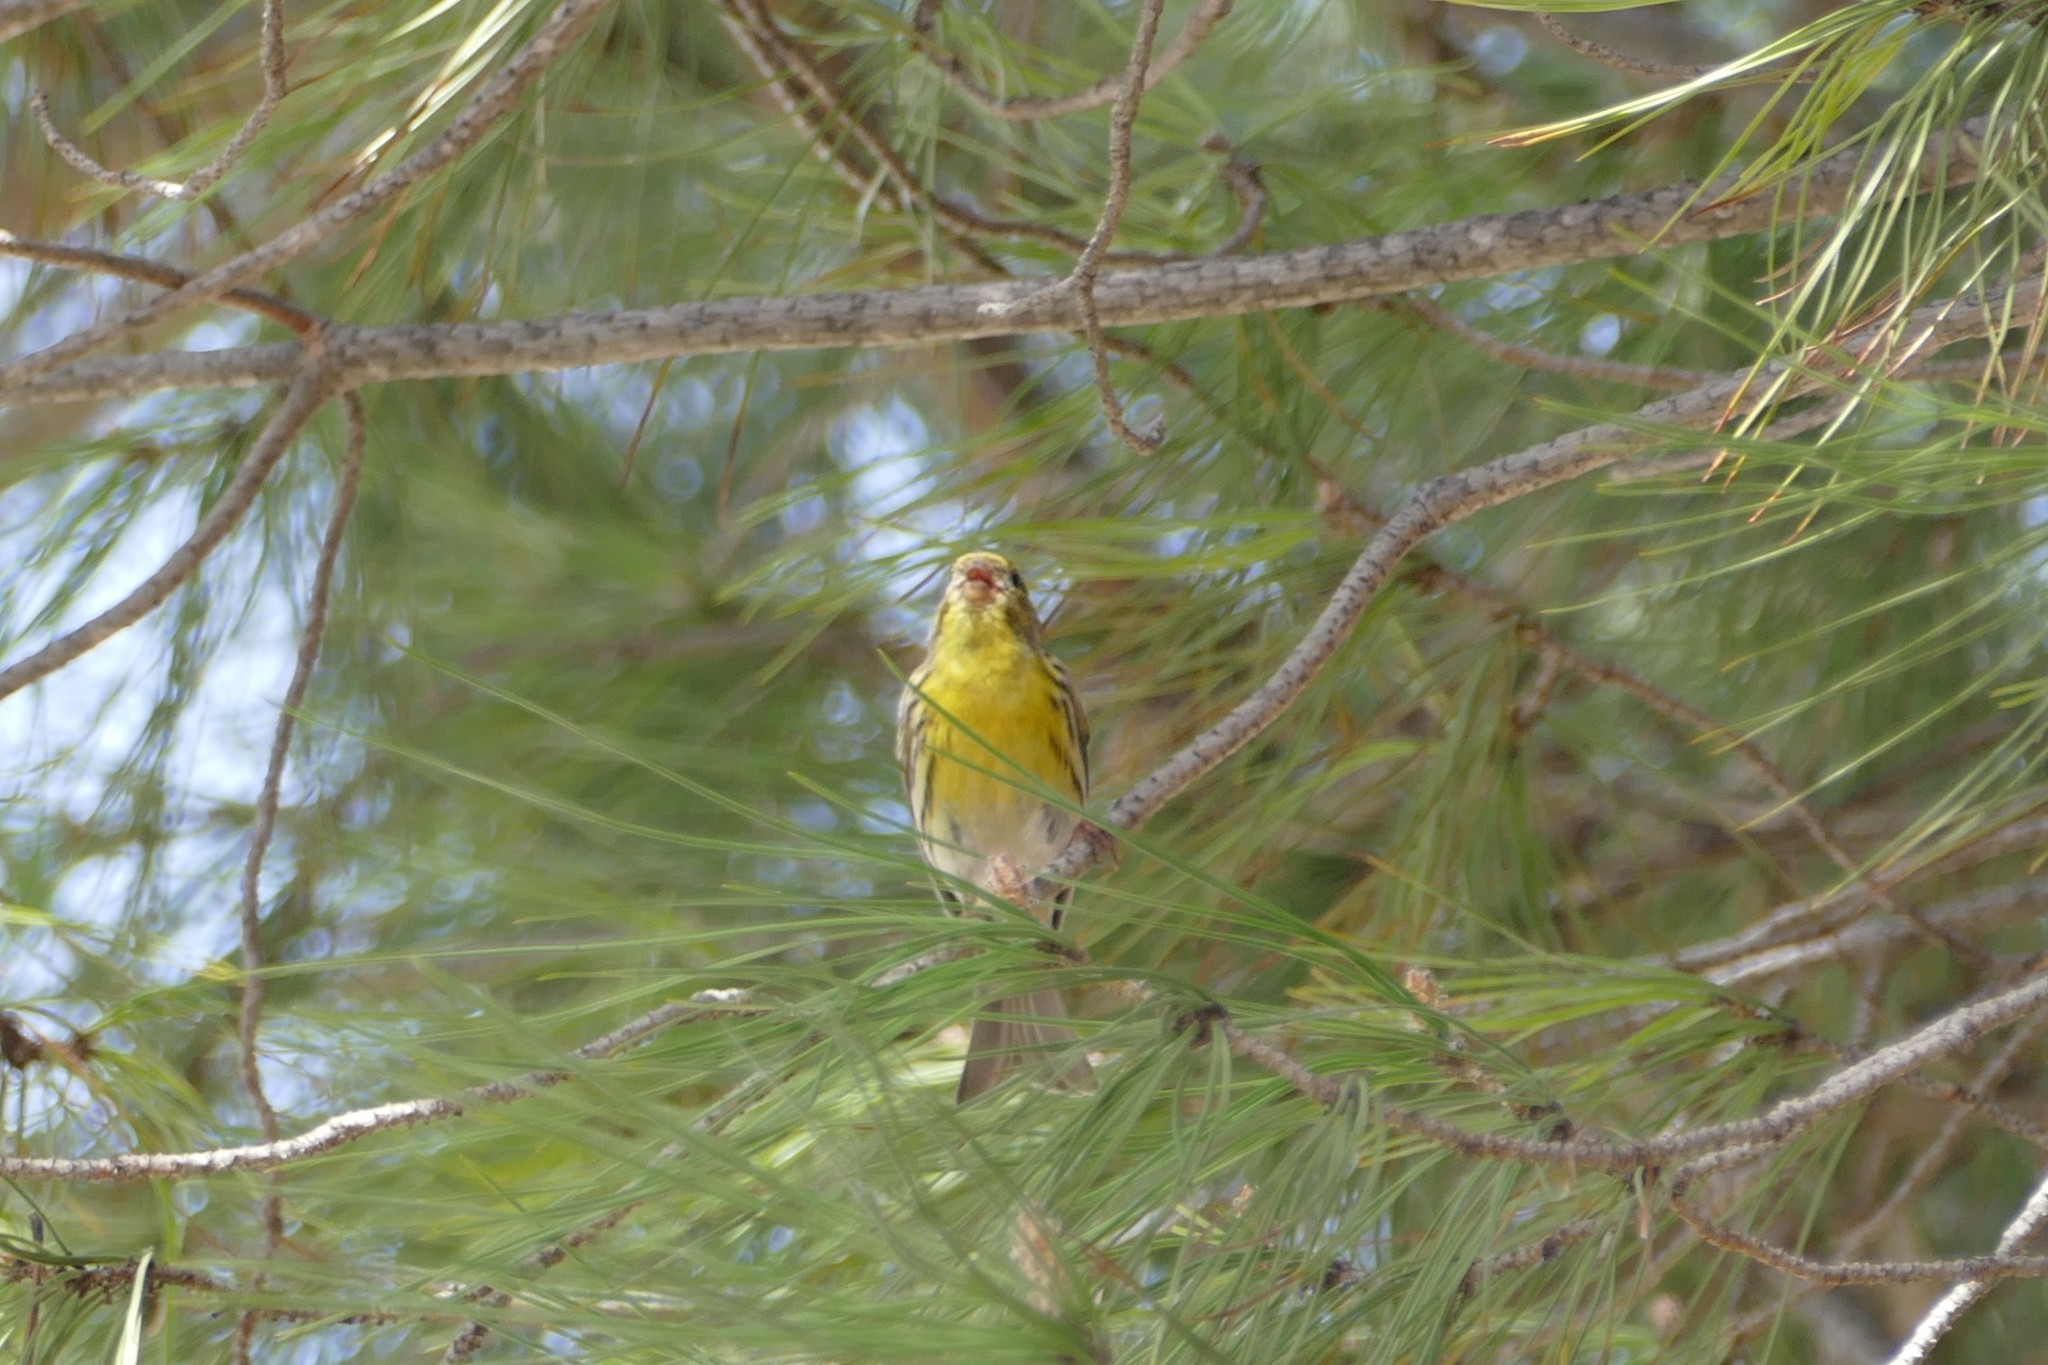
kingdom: Animalia
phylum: Chordata
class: Aves
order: Passeriformes
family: Fringillidae
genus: Serinus
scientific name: Serinus serinus
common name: European serin
